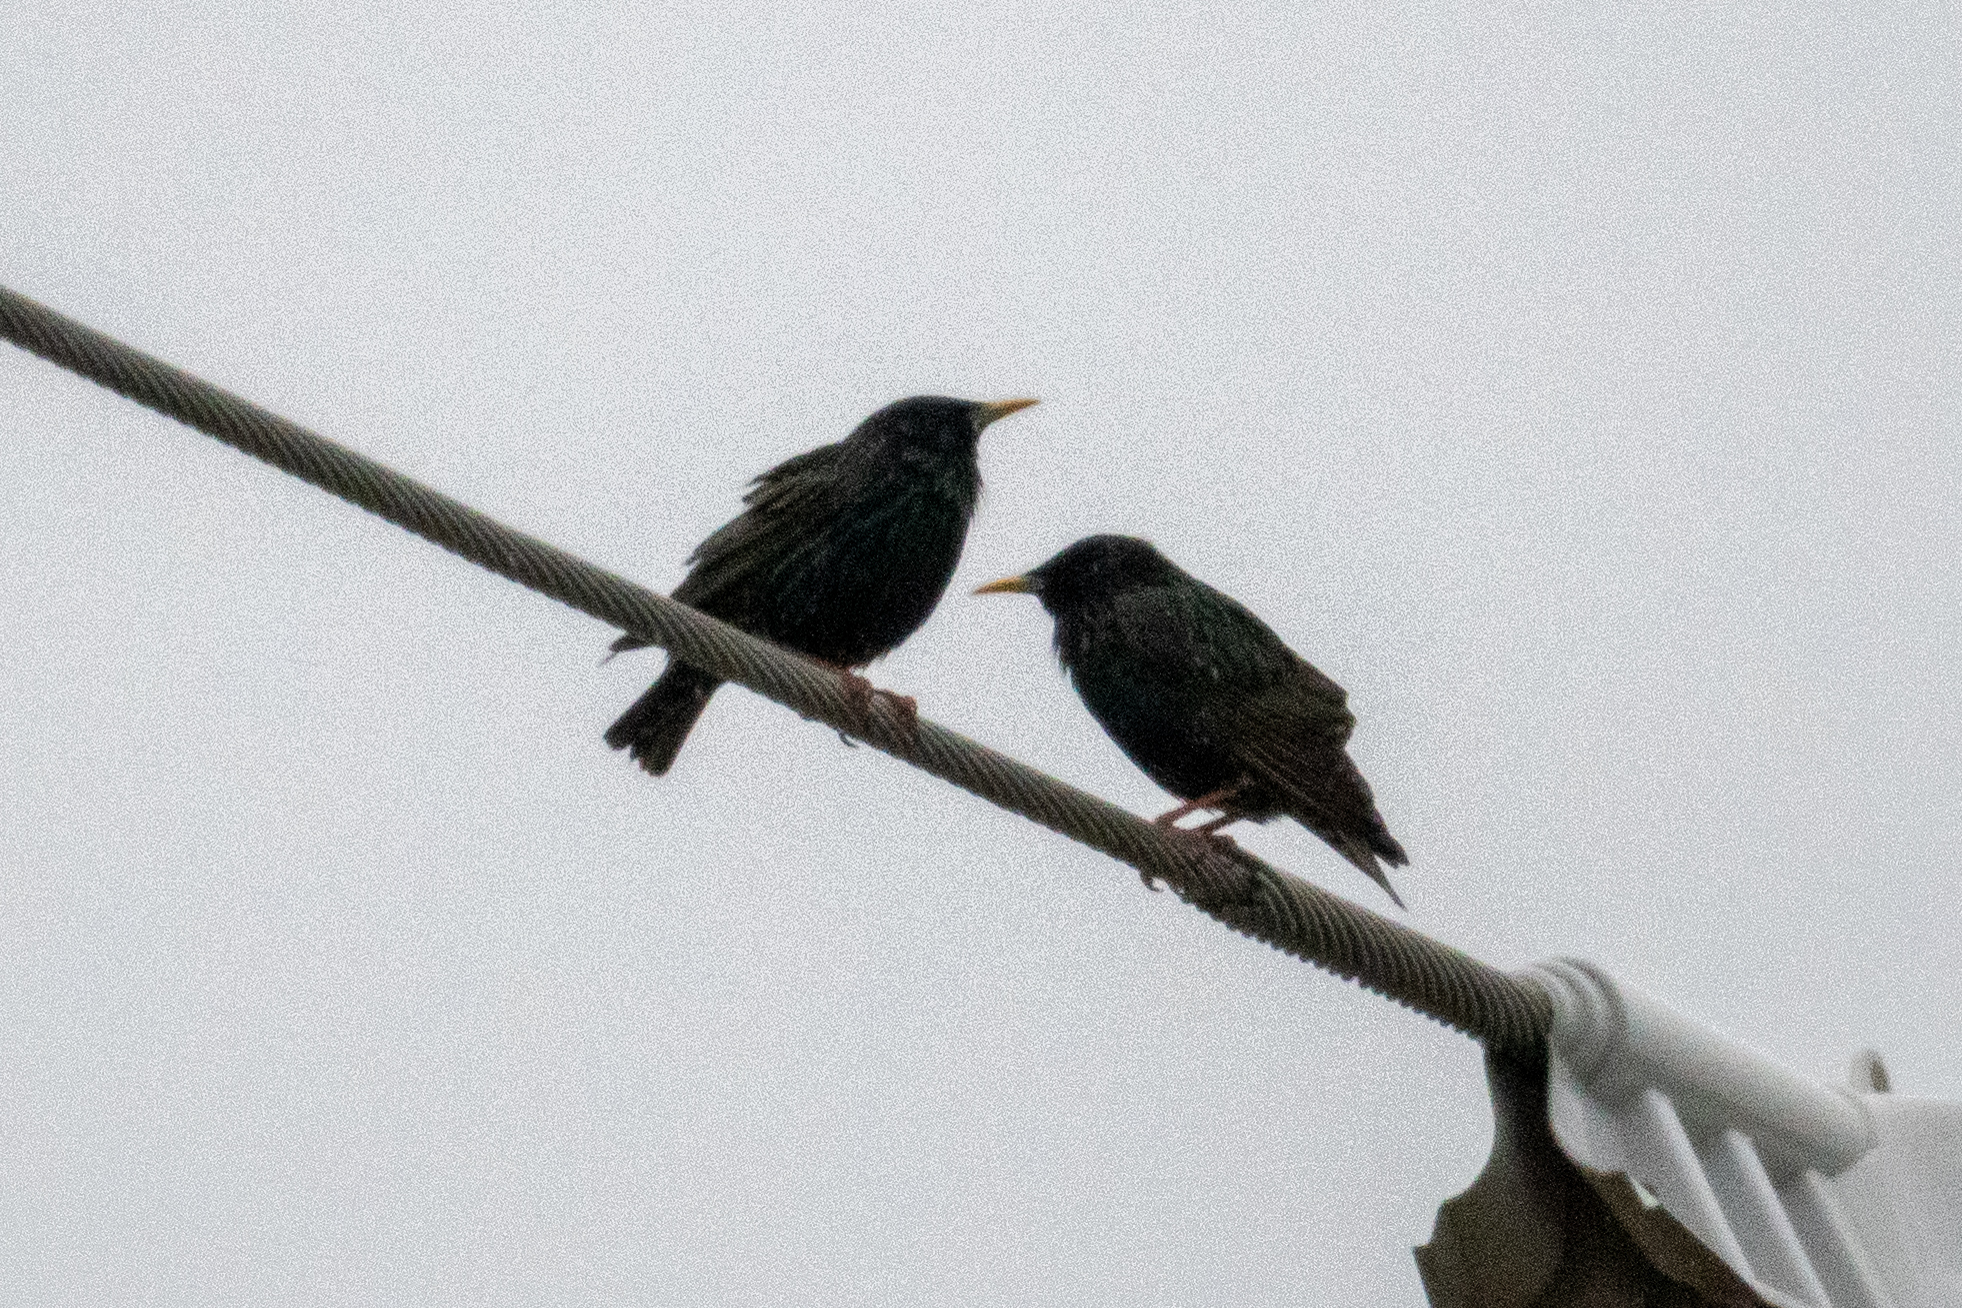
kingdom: Animalia
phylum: Chordata
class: Aves
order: Passeriformes
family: Sturnidae
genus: Sturnus
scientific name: Sturnus vulgaris
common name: Common starling
